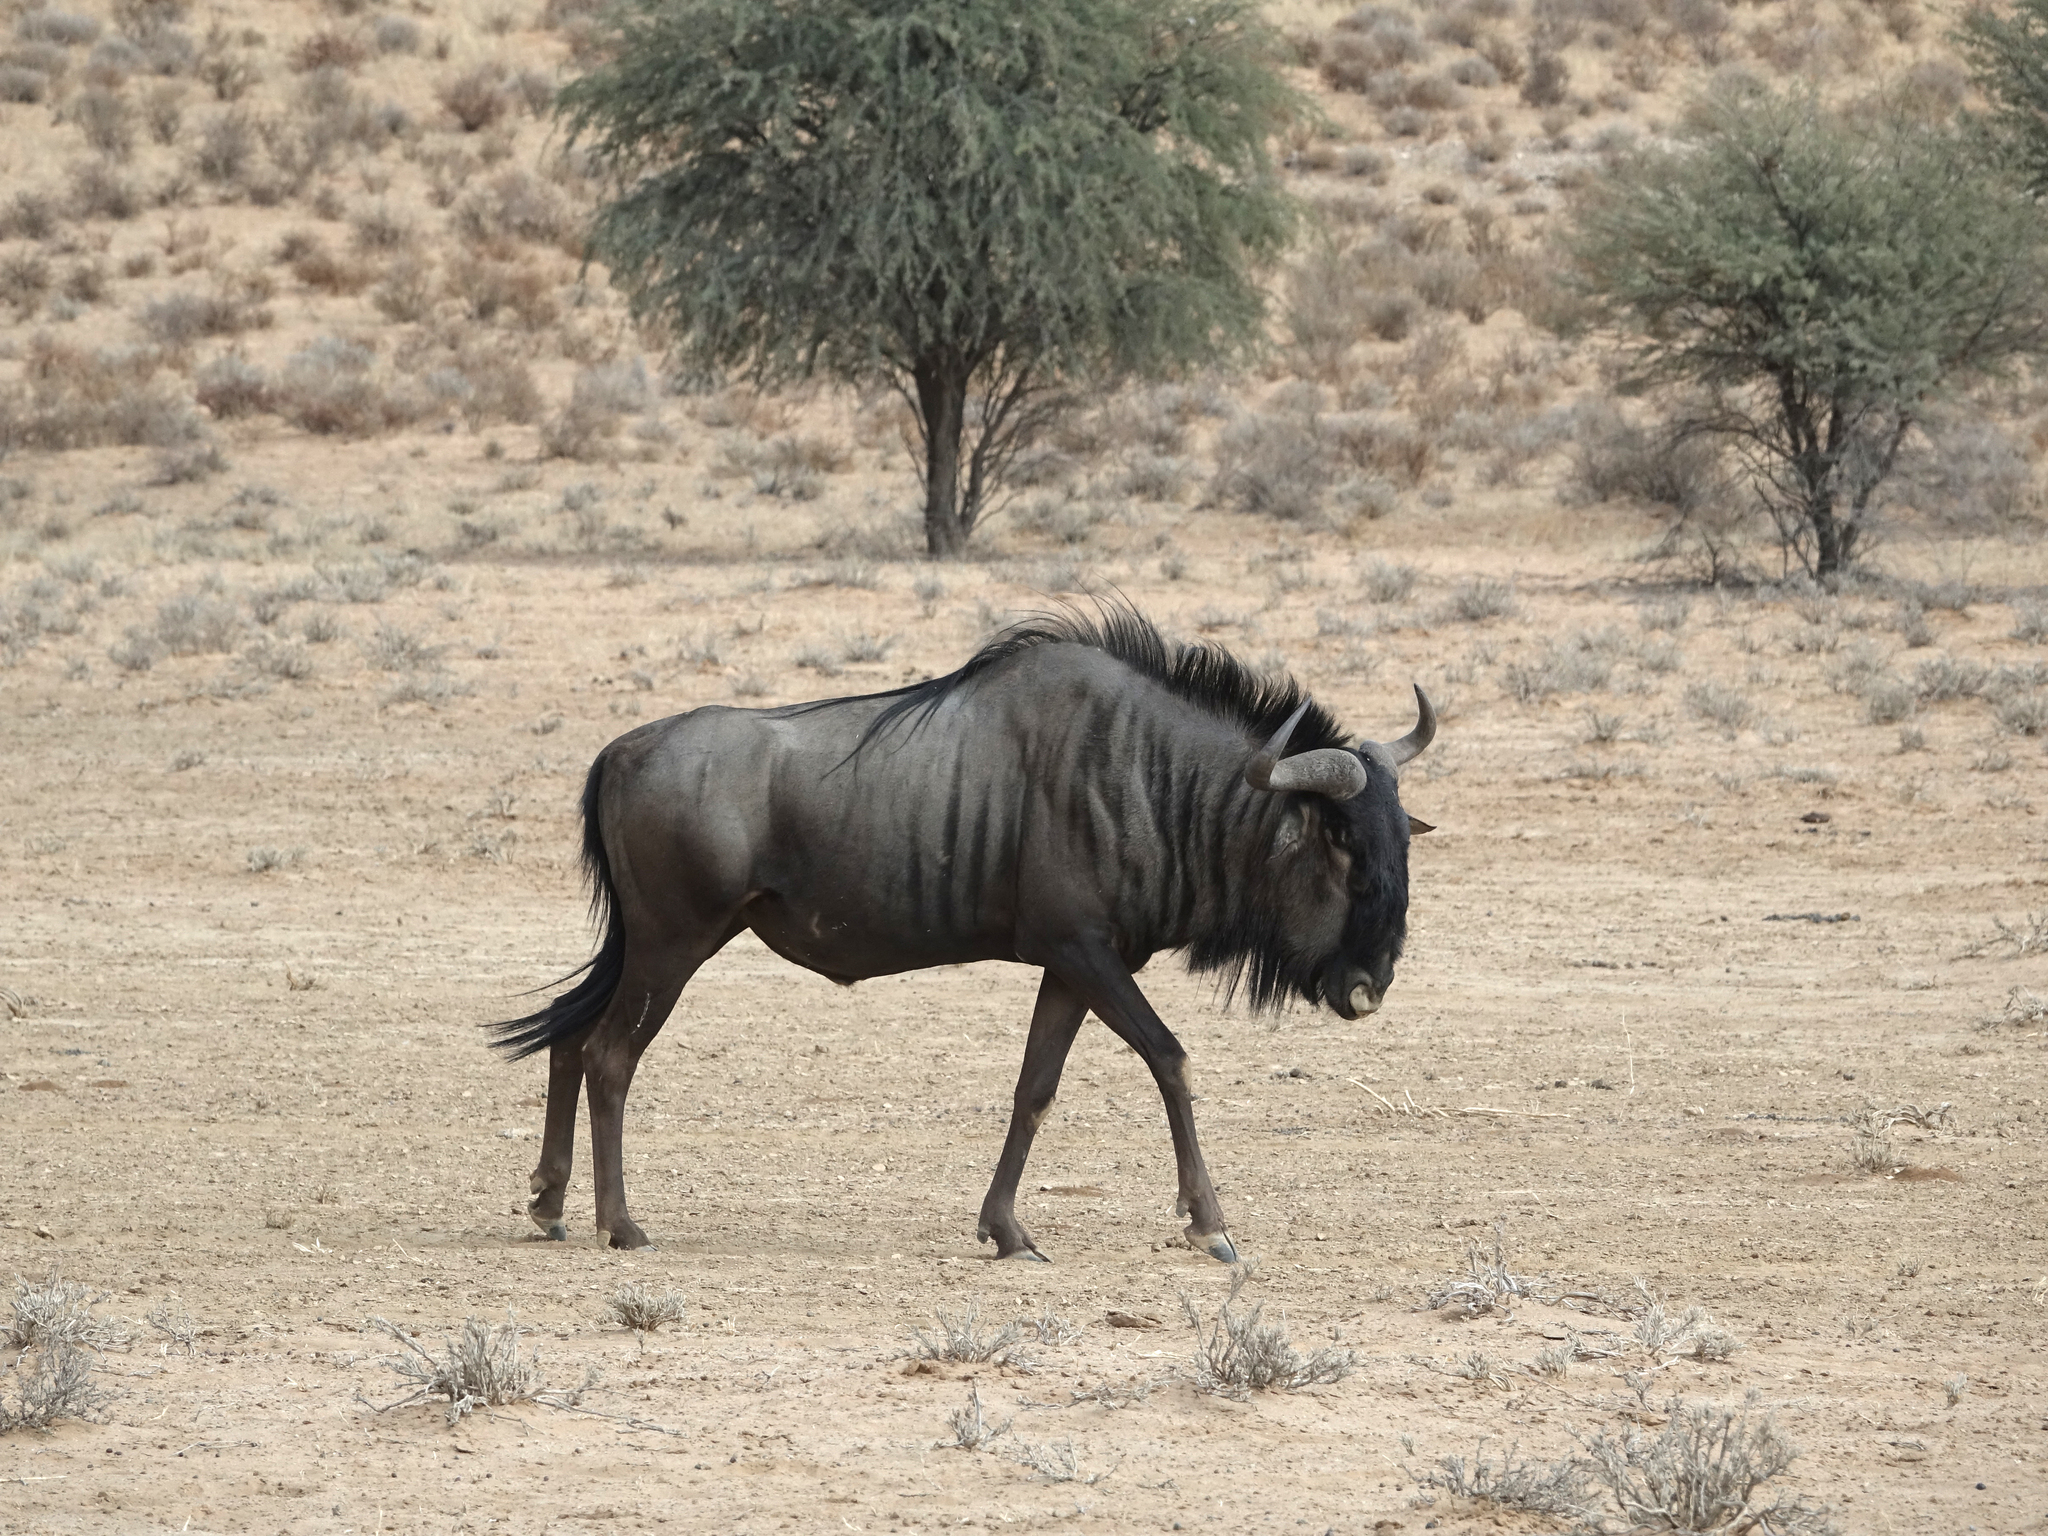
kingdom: Animalia
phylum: Chordata
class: Mammalia
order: Artiodactyla
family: Bovidae
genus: Connochaetes
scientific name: Connochaetes taurinus
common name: Blue wildebeest
